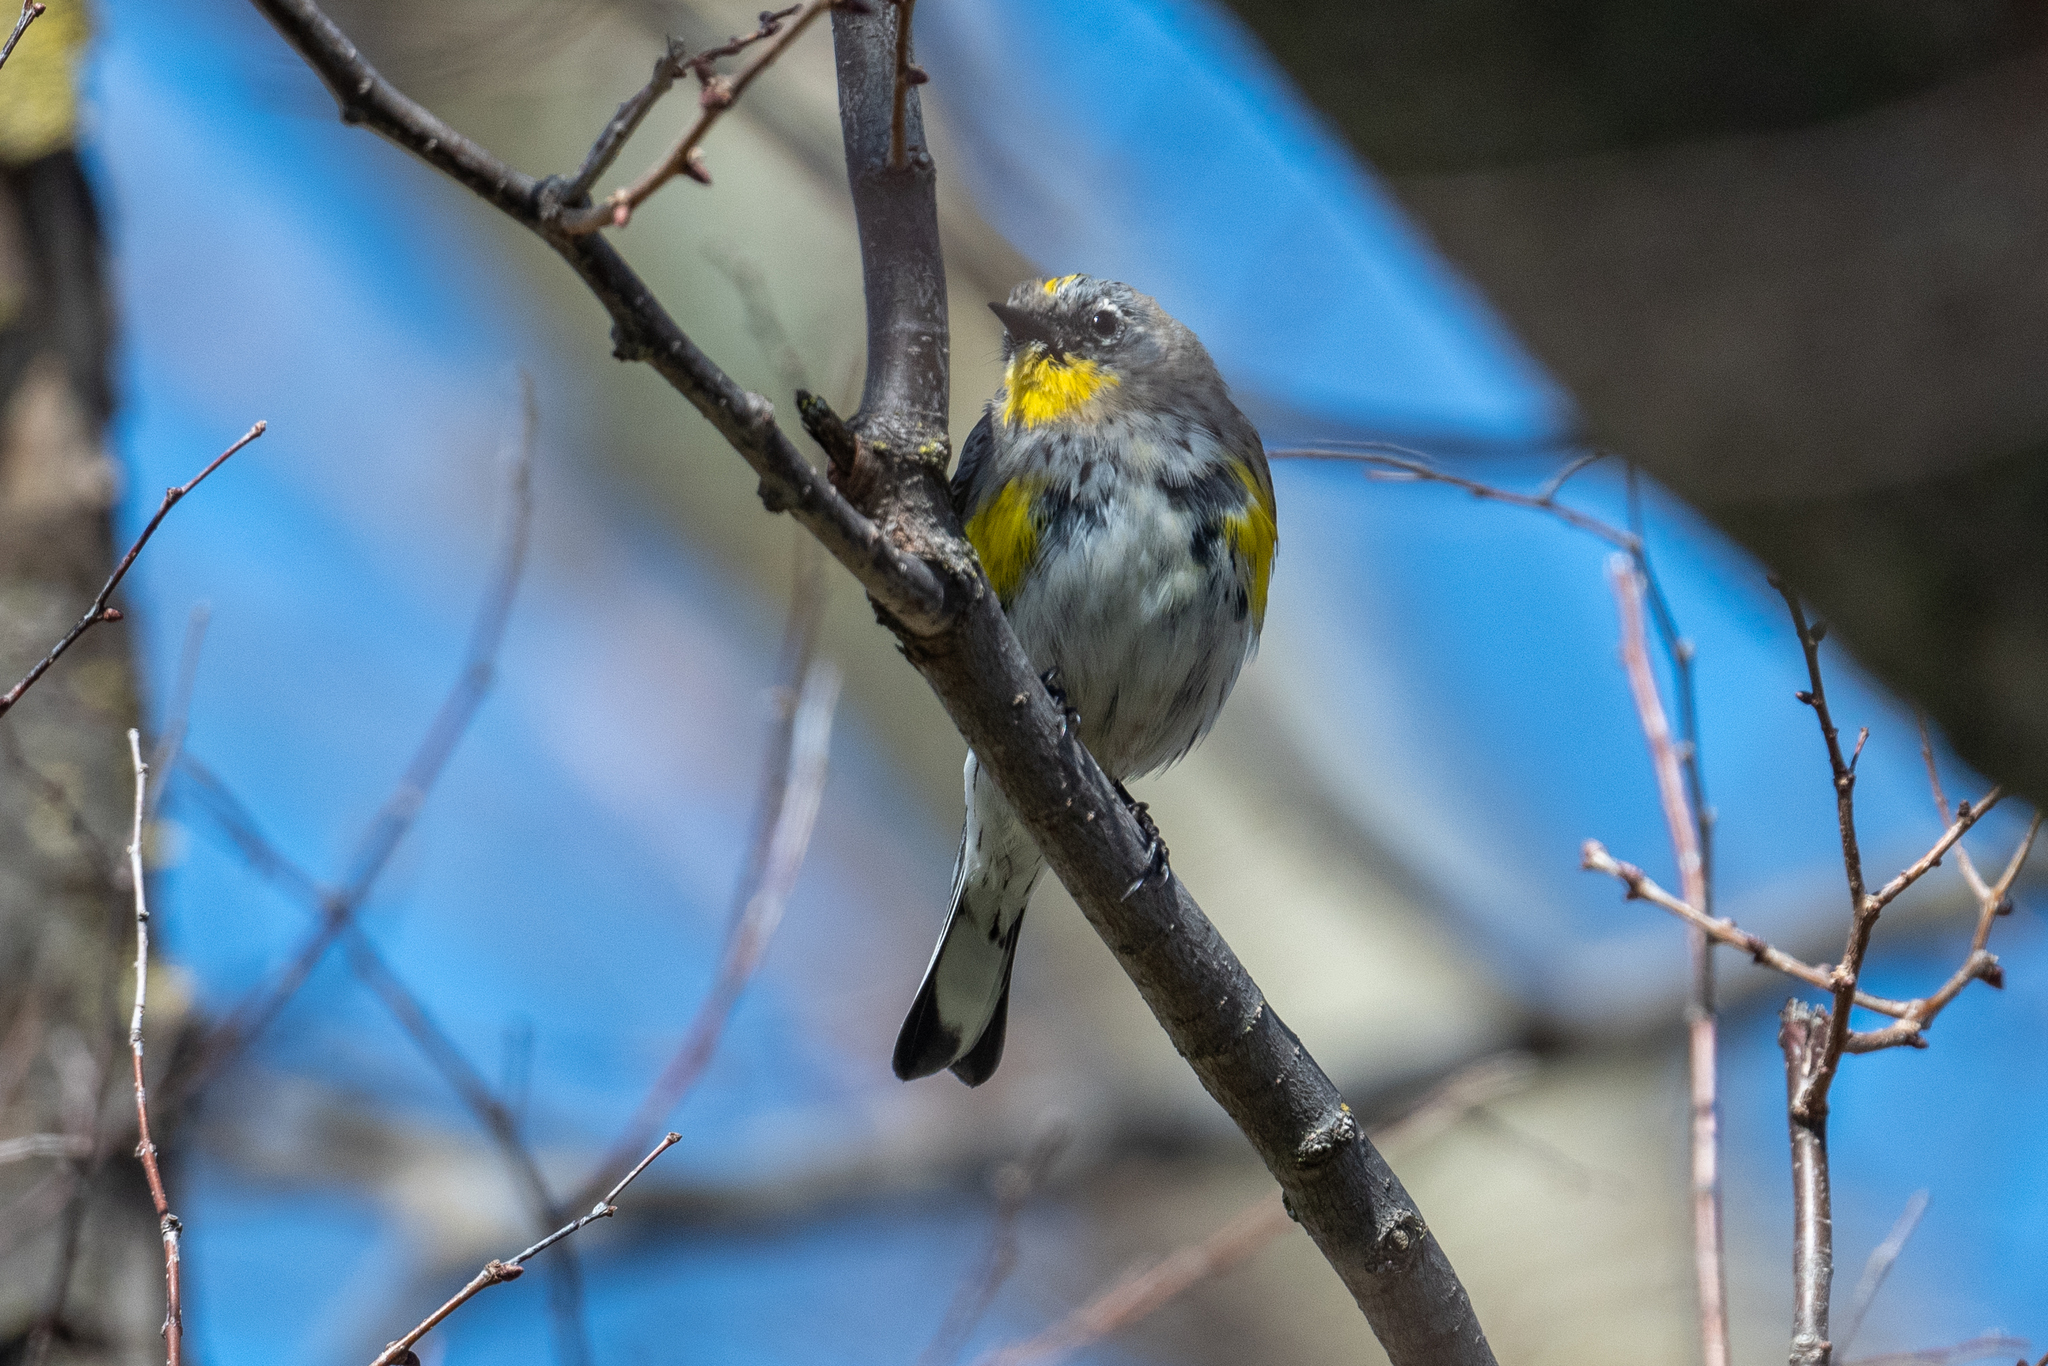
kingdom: Animalia
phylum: Chordata
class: Aves
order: Passeriformes
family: Parulidae
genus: Setophaga
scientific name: Setophaga coronata
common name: Myrtle warbler
